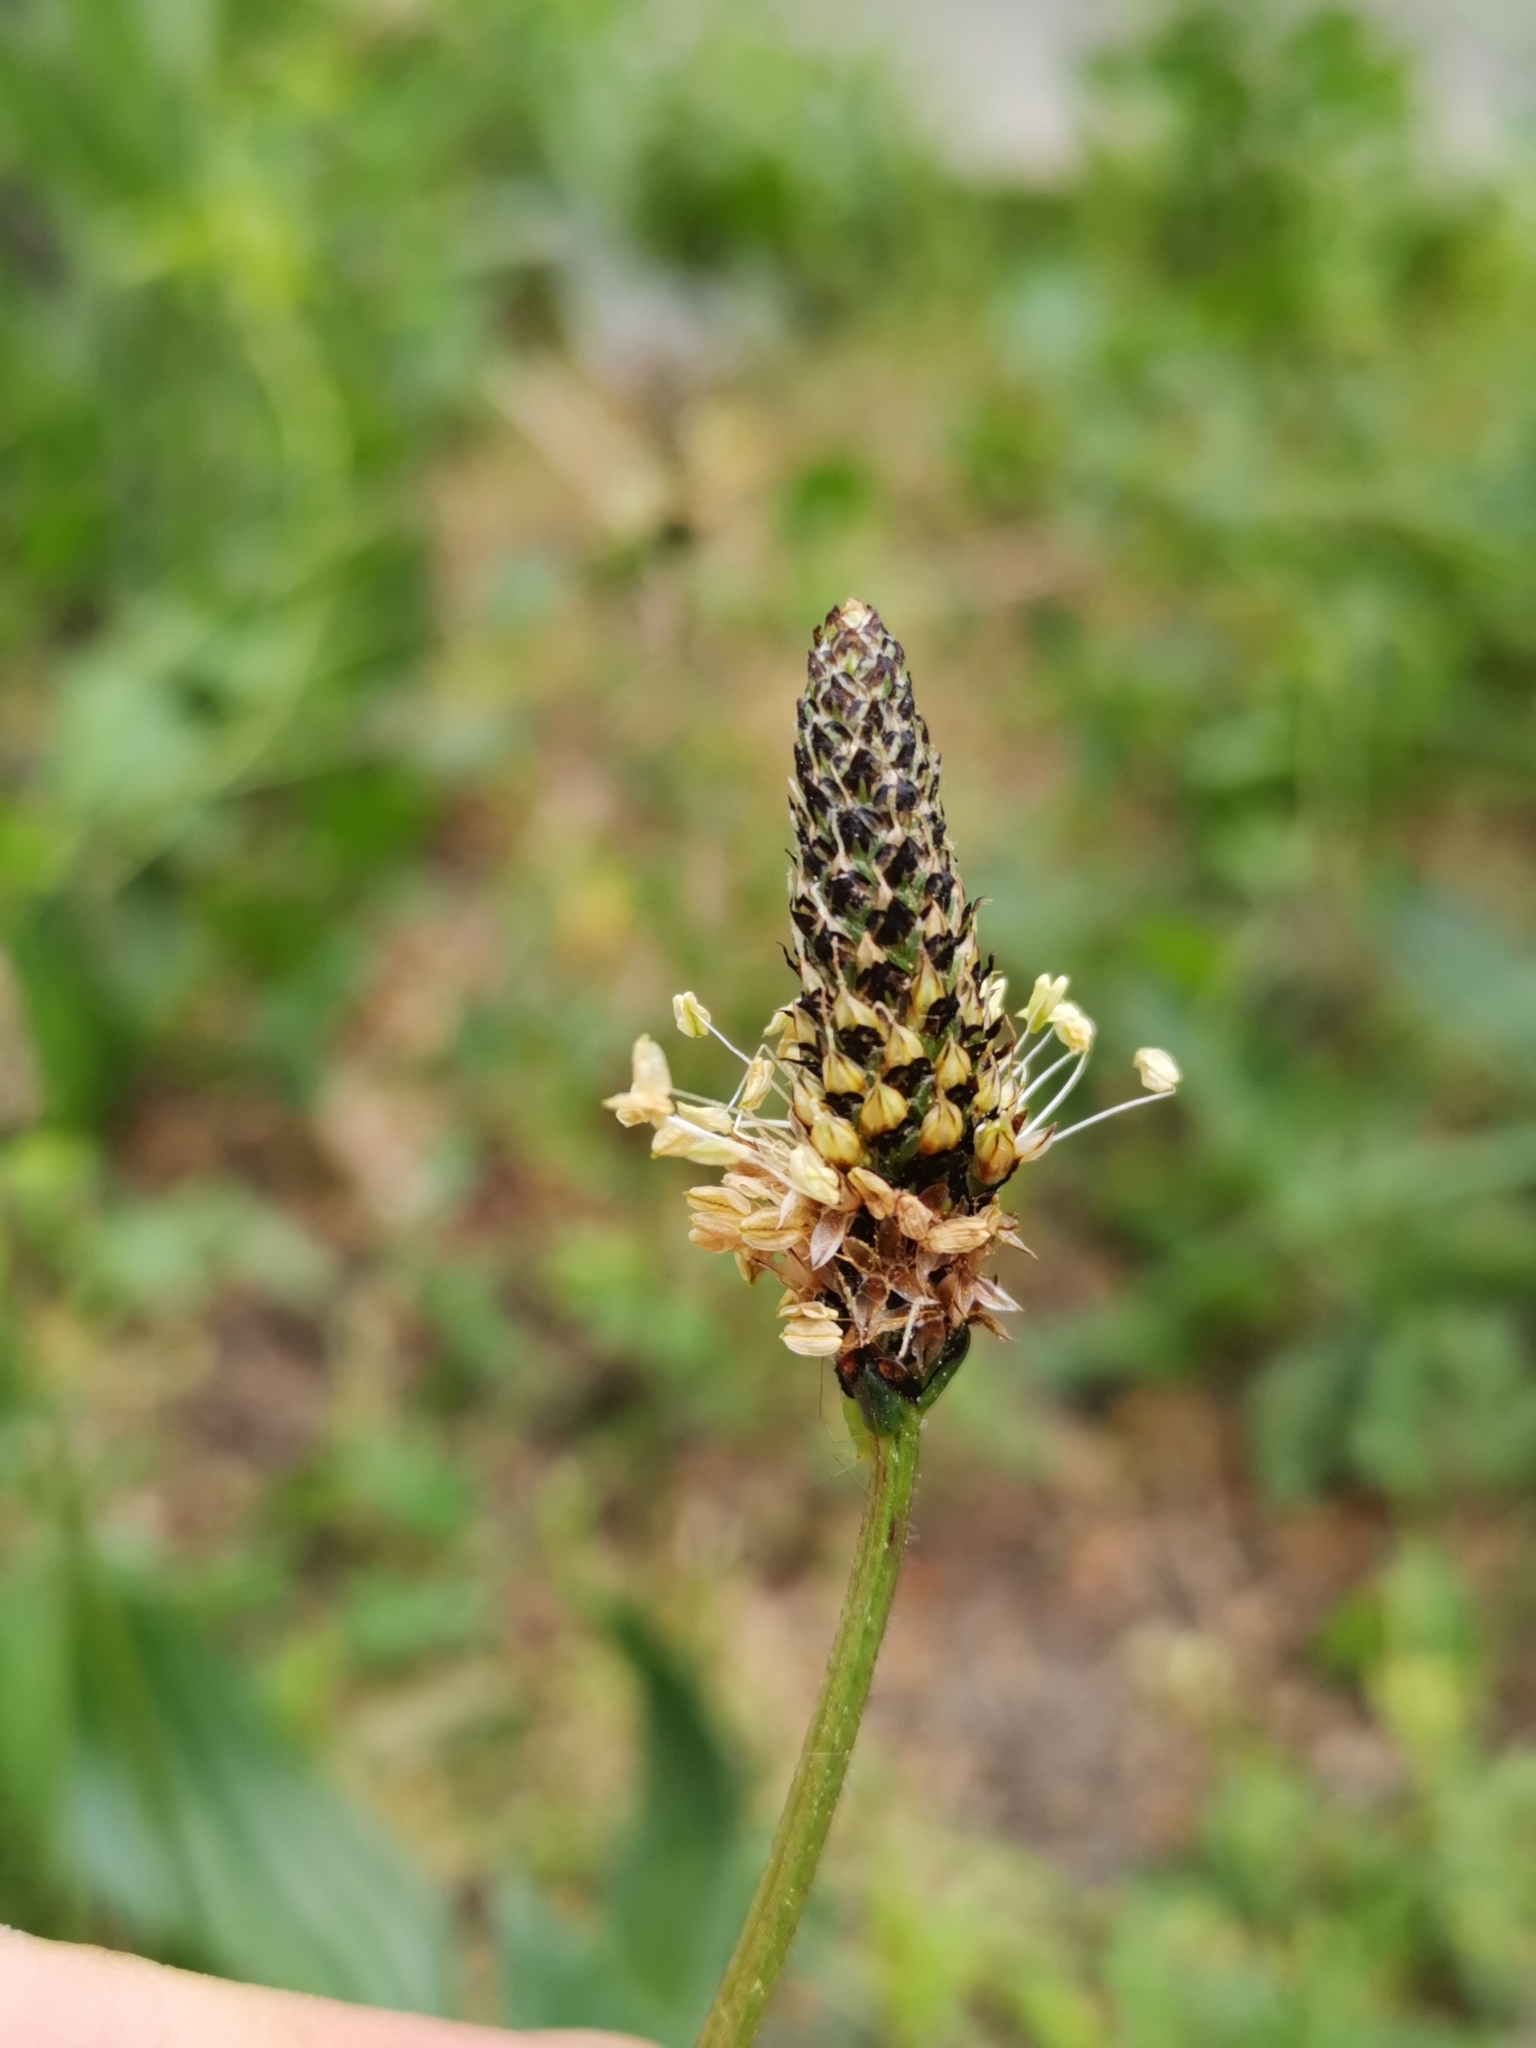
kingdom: Plantae
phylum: Tracheophyta
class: Magnoliopsida
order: Lamiales
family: Plantaginaceae
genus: Plantago
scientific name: Plantago lanceolata
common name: Ribwort plantain
